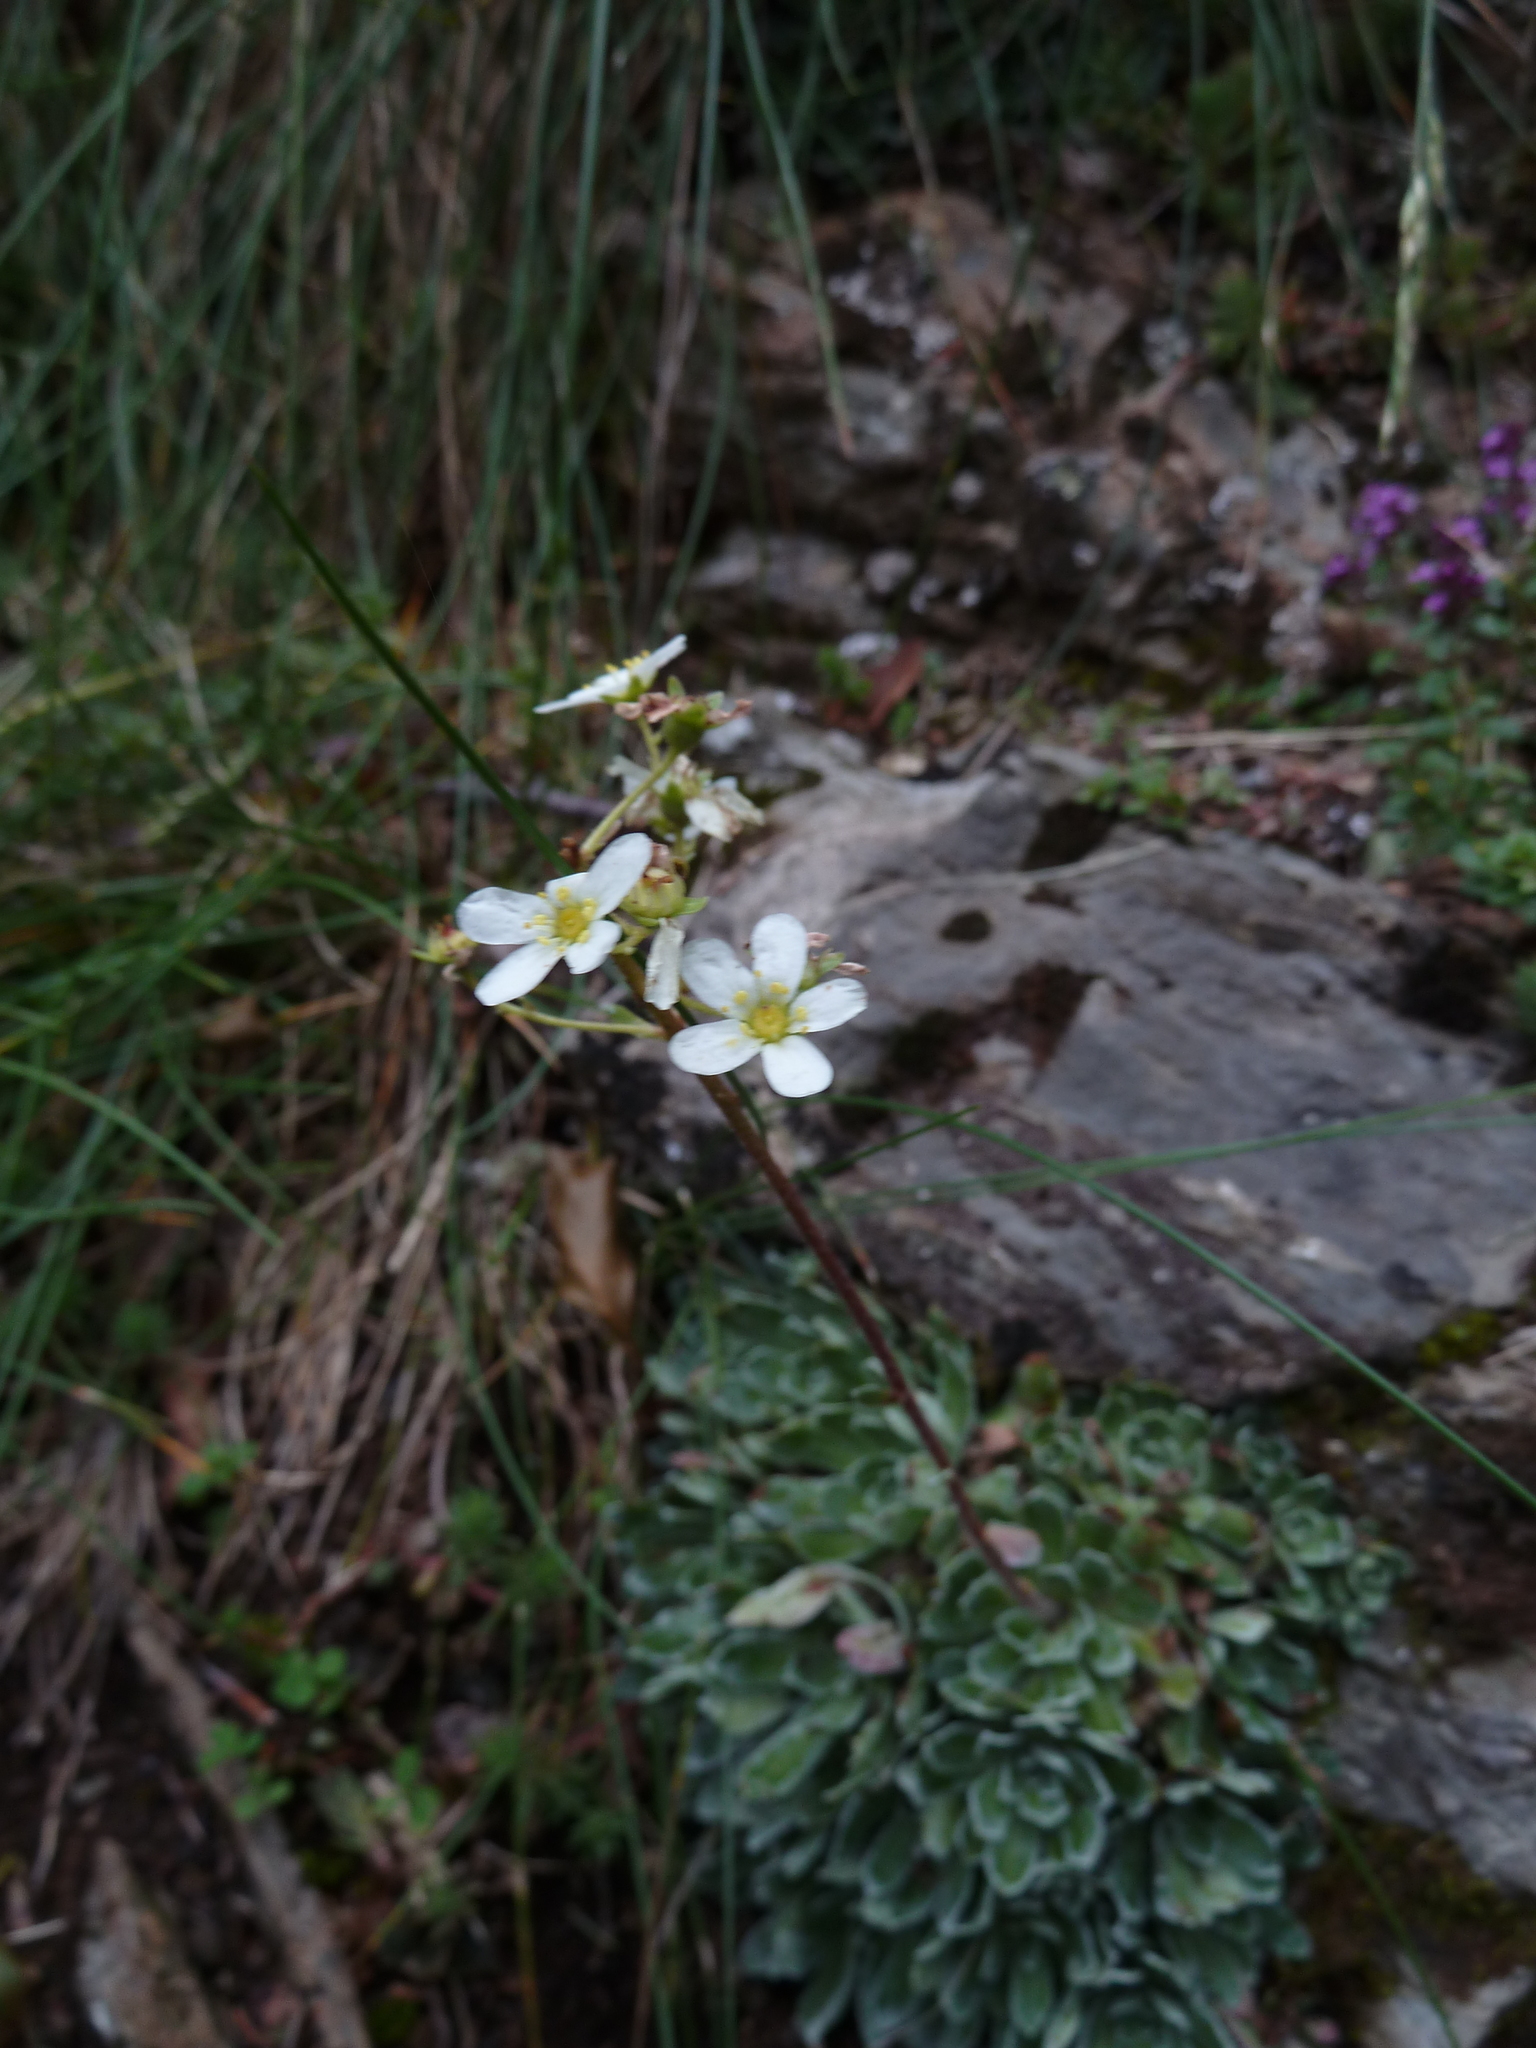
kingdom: Plantae
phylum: Tracheophyta
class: Magnoliopsida
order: Saxifragales
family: Saxifragaceae
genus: Saxifraga
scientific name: Saxifraga paniculata
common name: Livelong saxifrage
